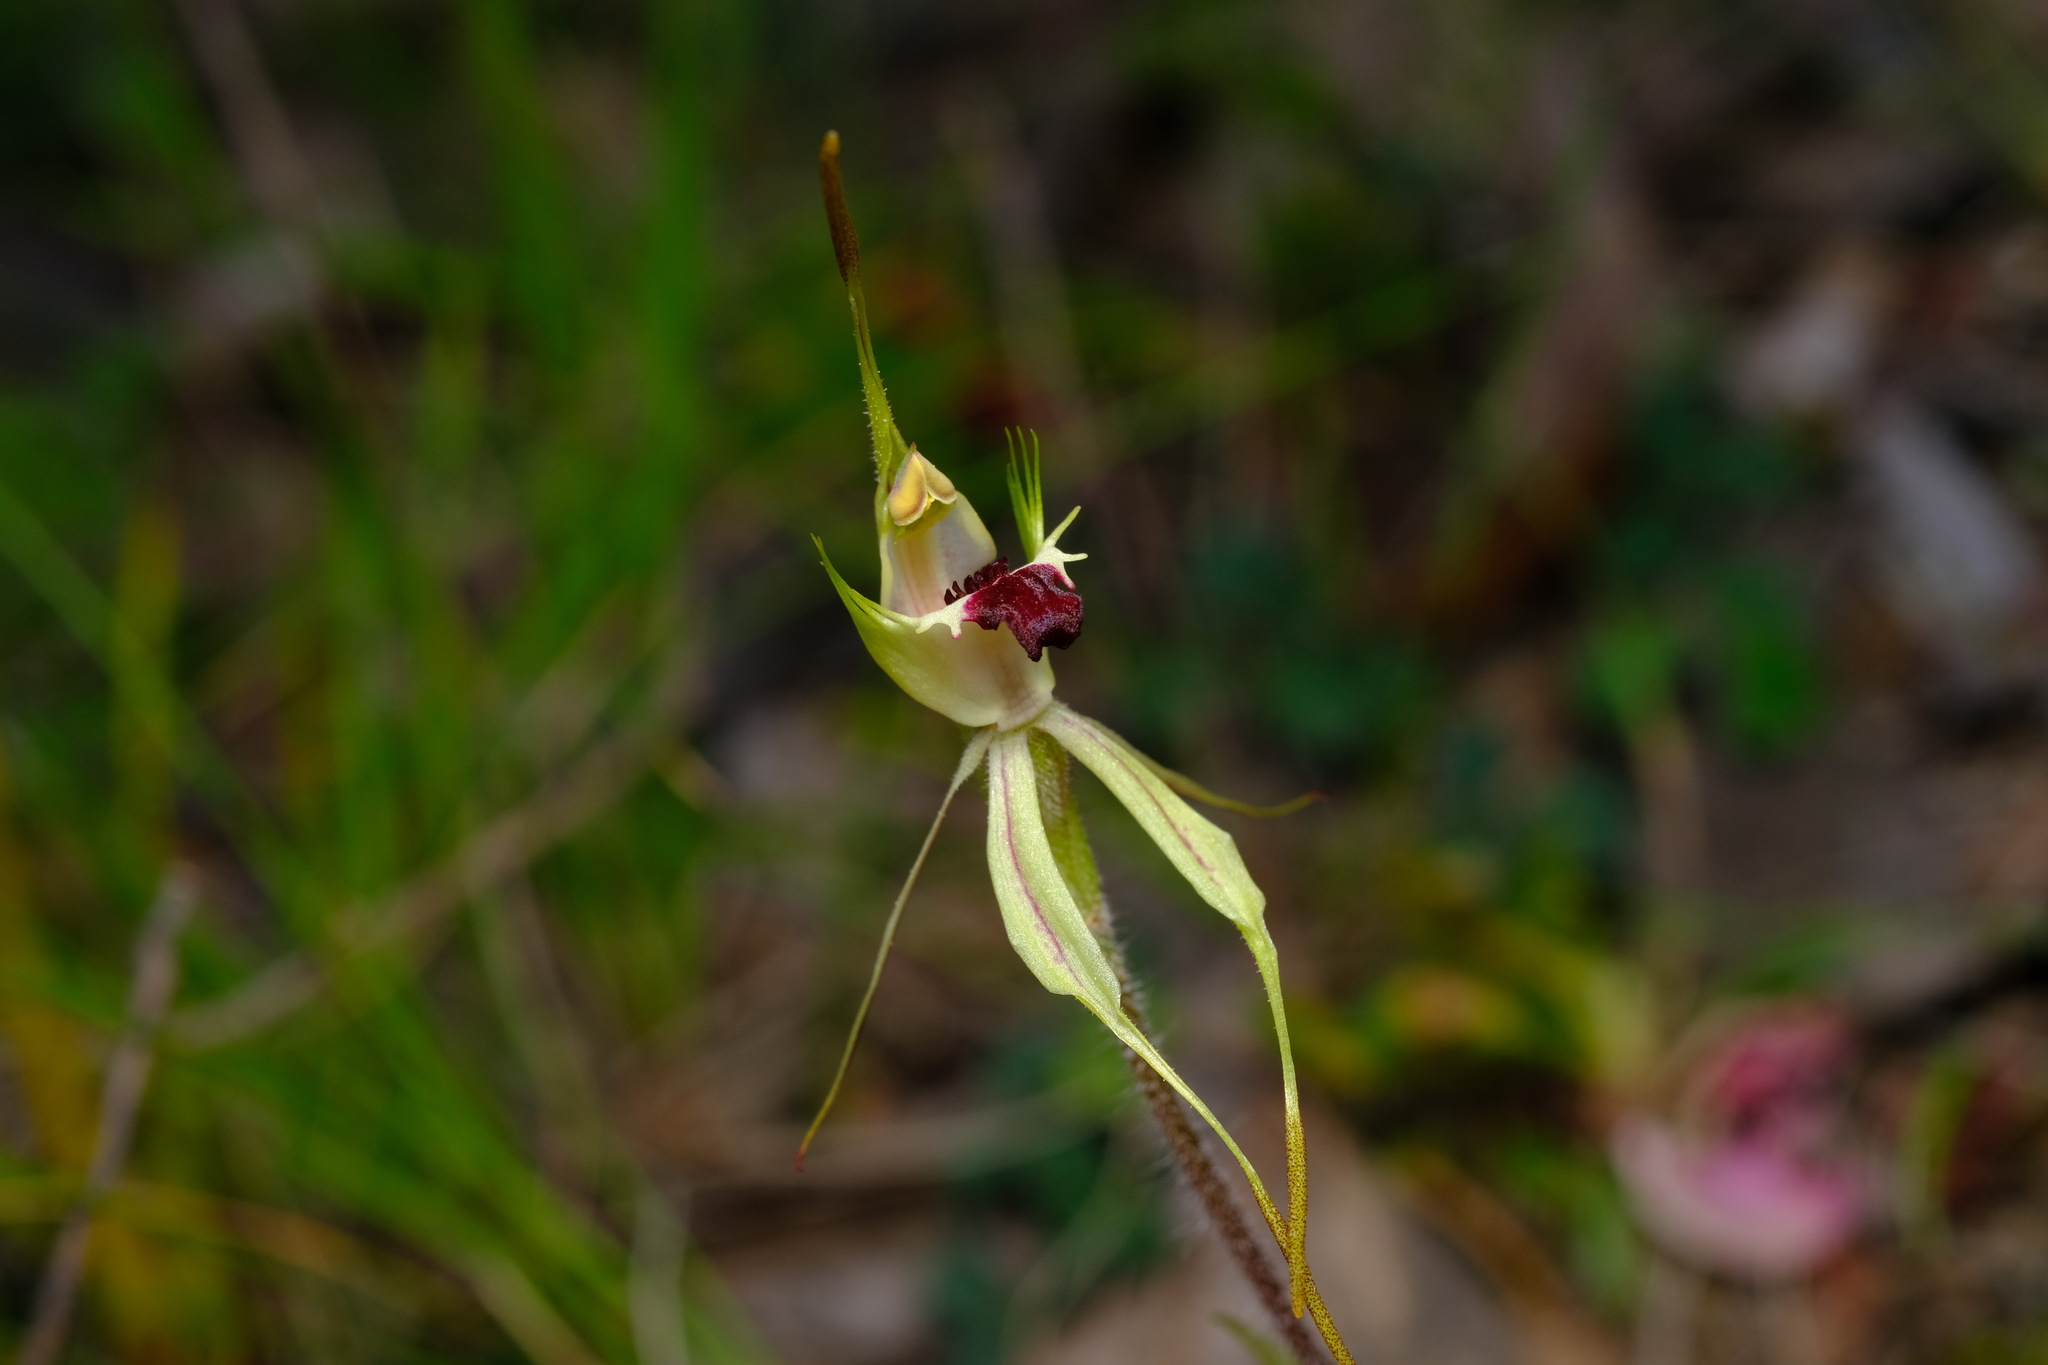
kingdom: Plantae
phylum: Tracheophyta
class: Liliopsida
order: Asparagales
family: Orchidaceae
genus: Caladenia
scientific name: Caladenia parva
